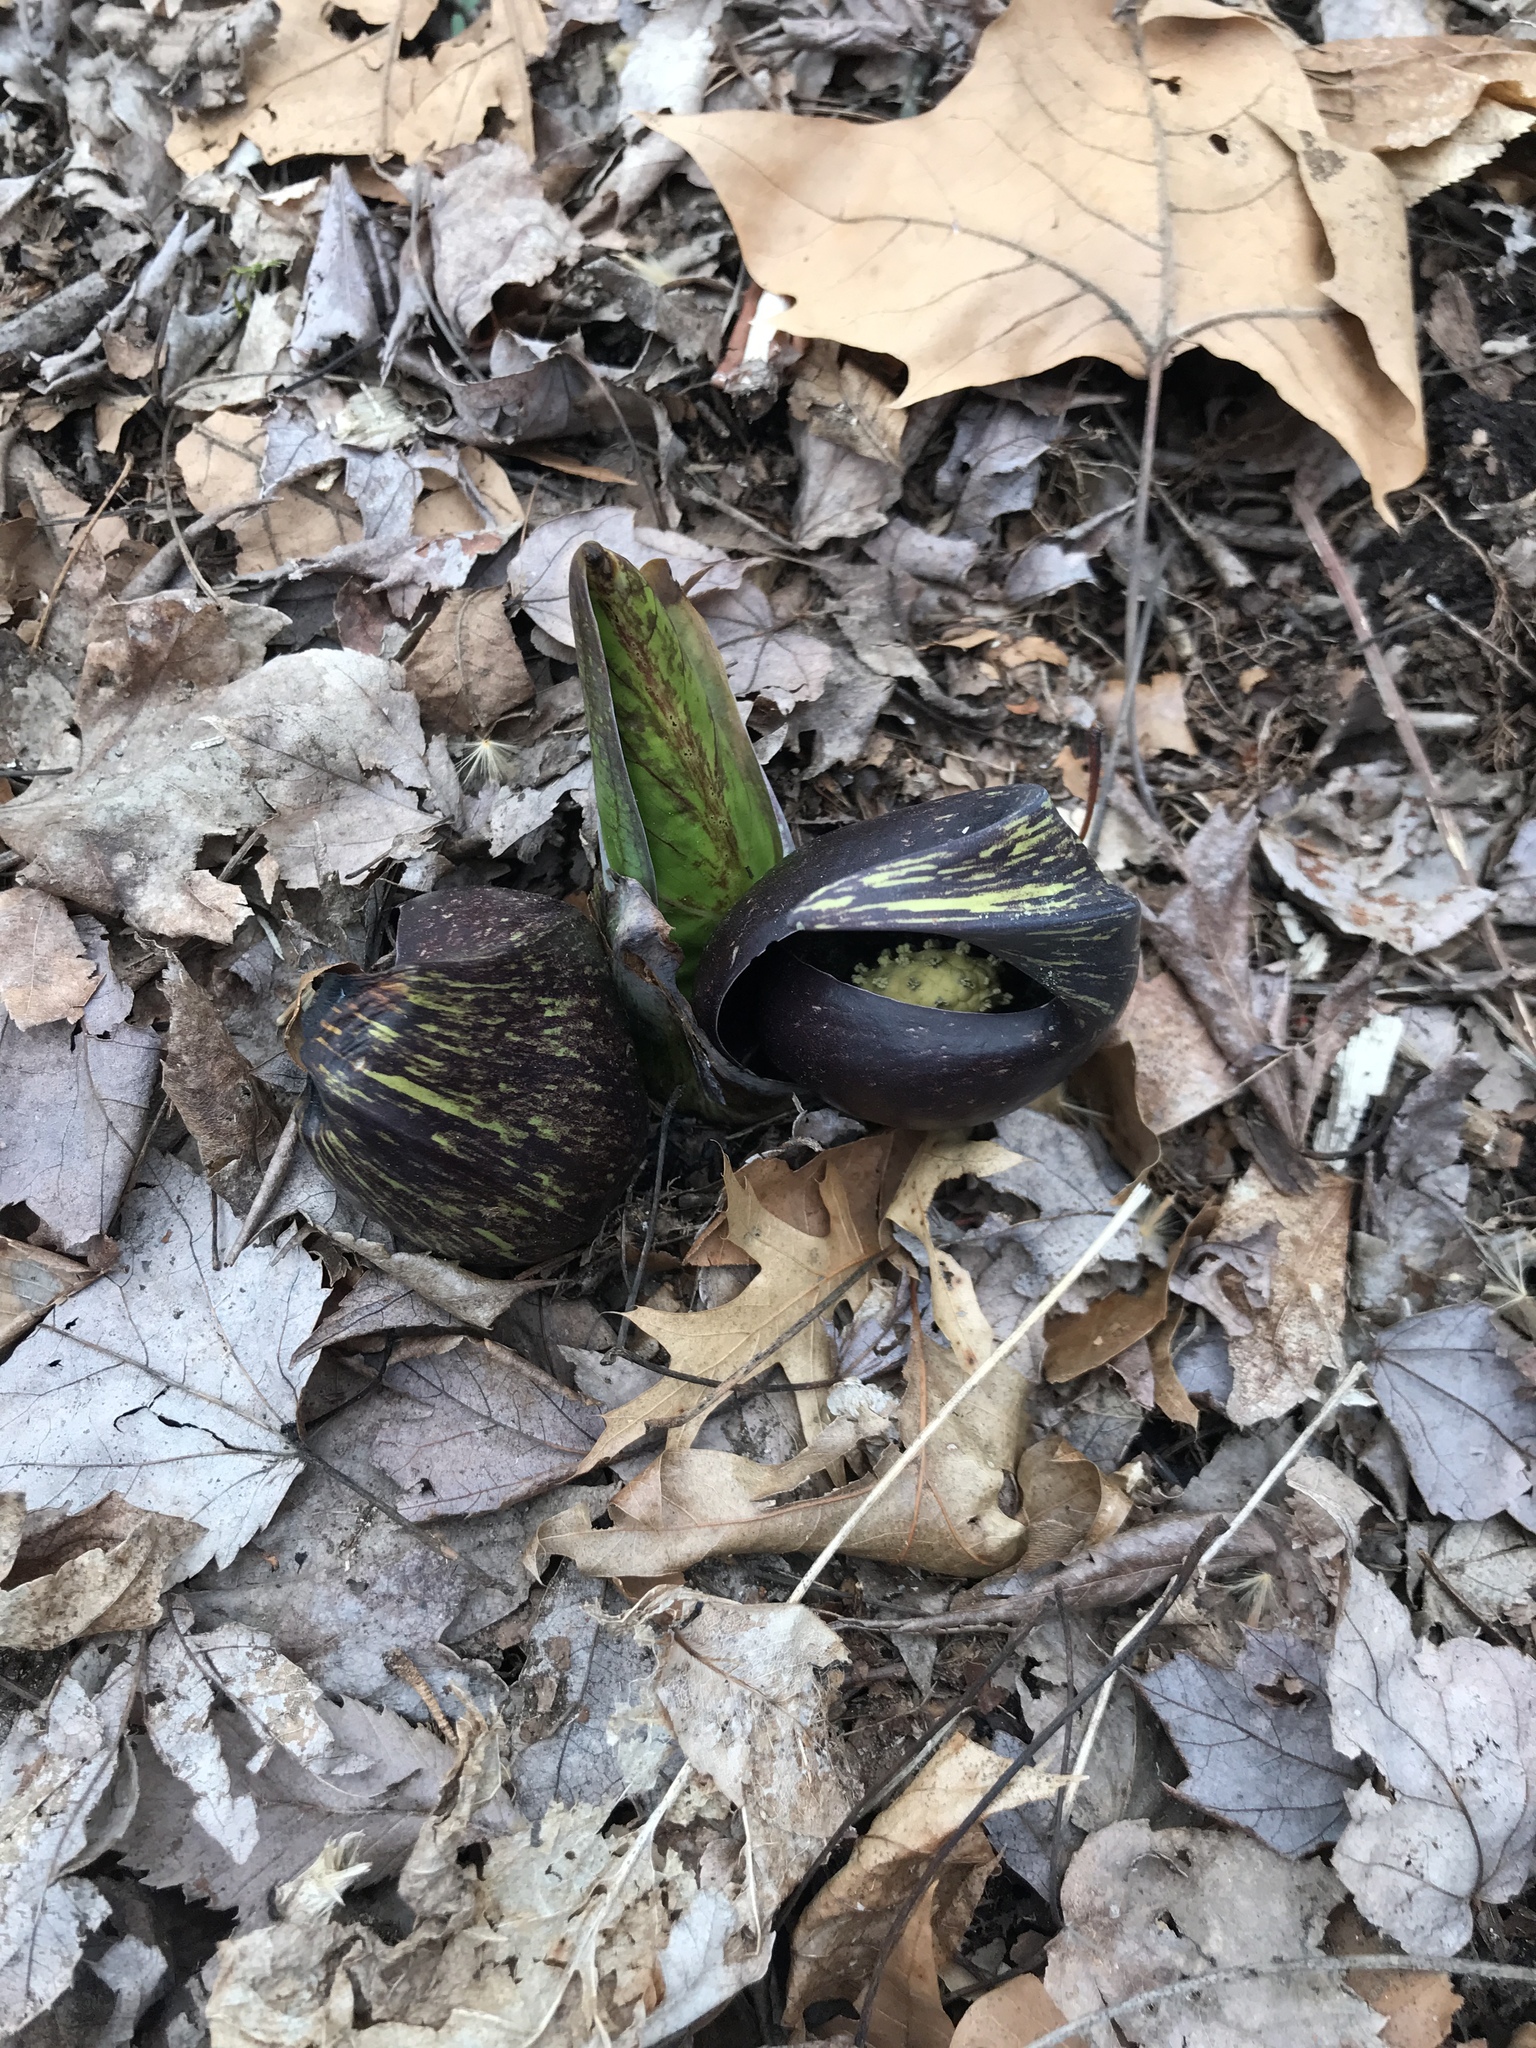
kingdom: Plantae
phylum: Tracheophyta
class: Liliopsida
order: Alismatales
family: Araceae
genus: Symplocarpus
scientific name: Symplocarpus foetidus
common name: Eastern skunk cabbage
